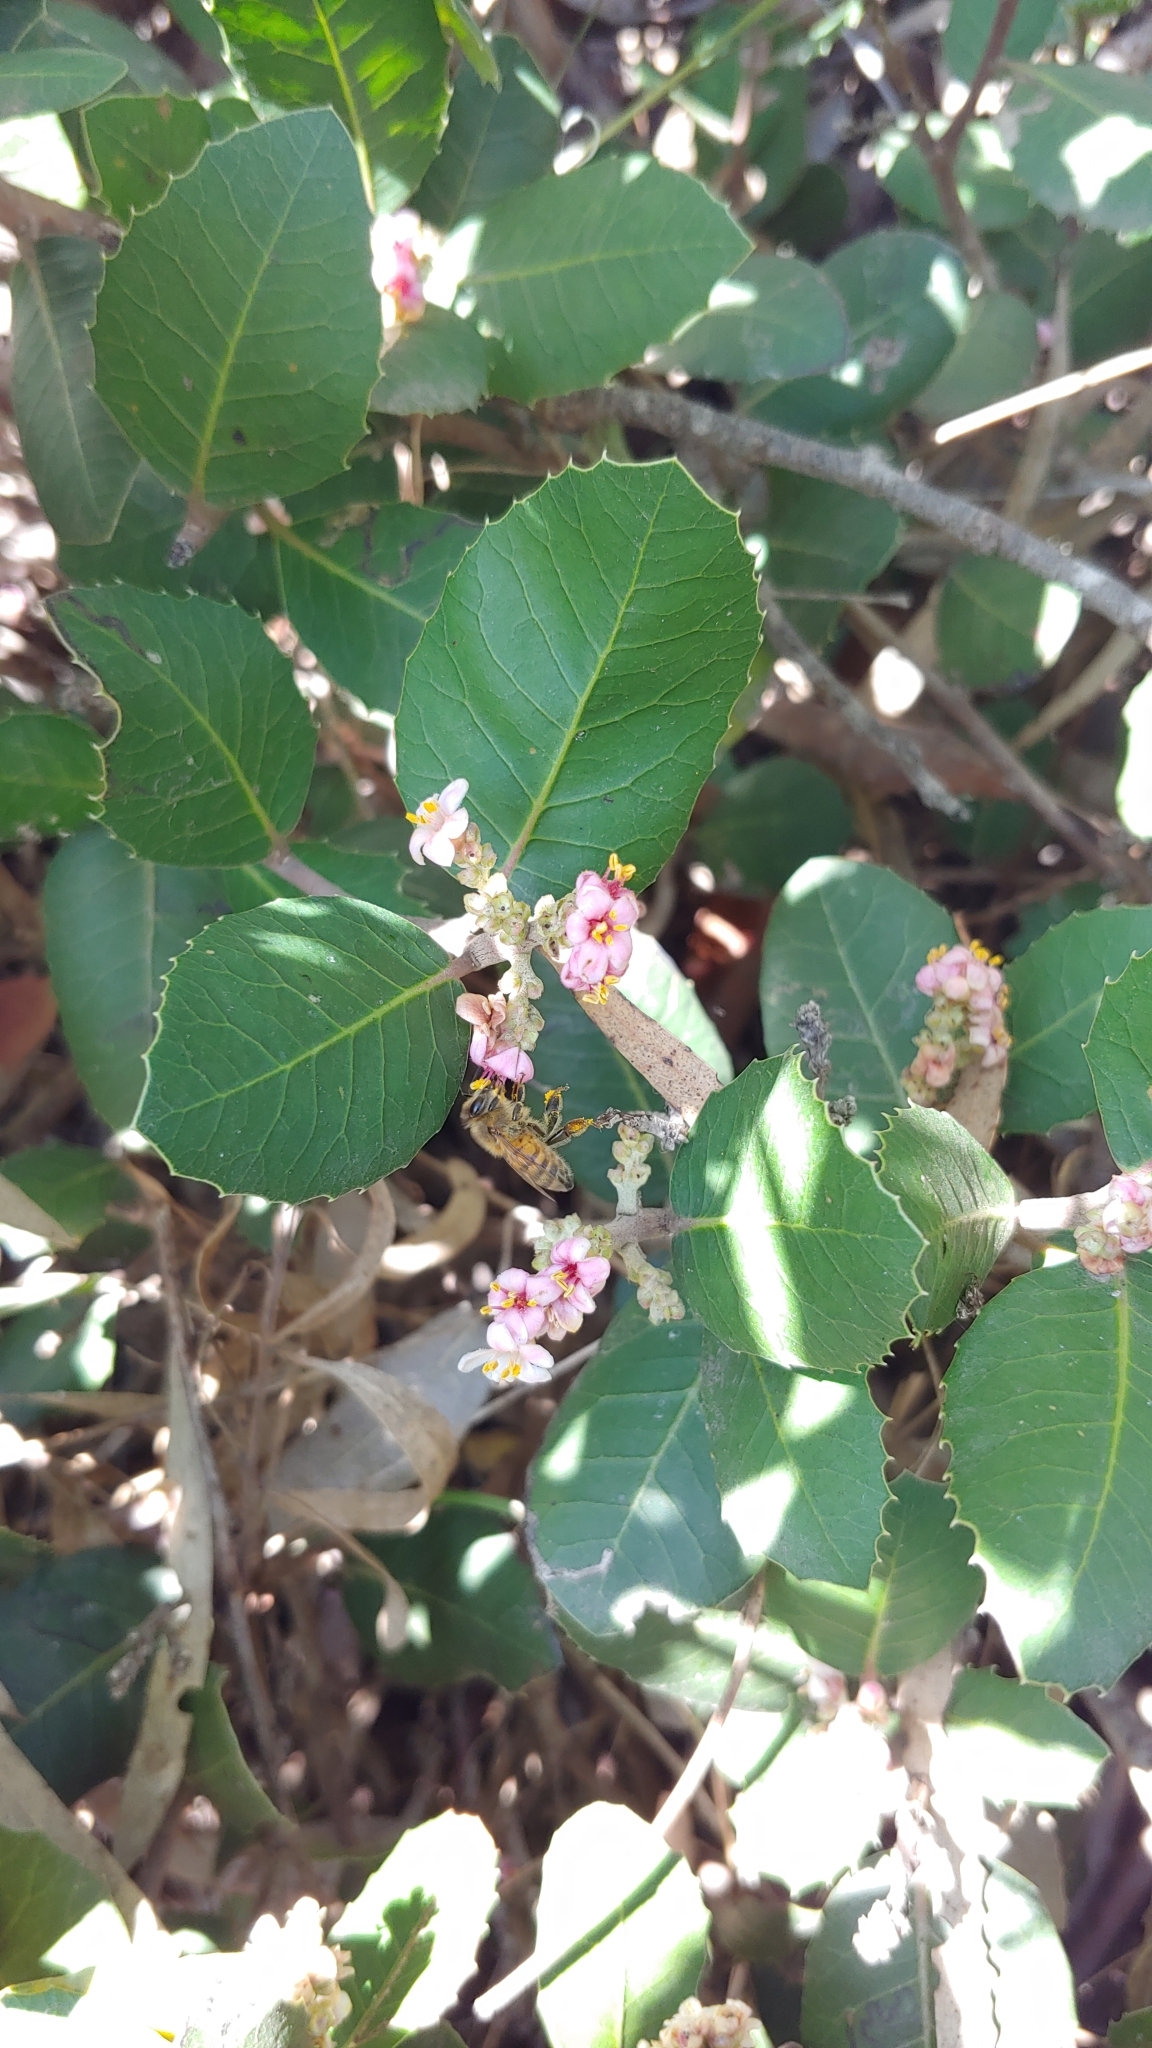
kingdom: Animalia
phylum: Arthropoda
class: Insecta
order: Hymenoptera
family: Apidae
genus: Apis
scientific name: Apis mellifera
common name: Honey bee
